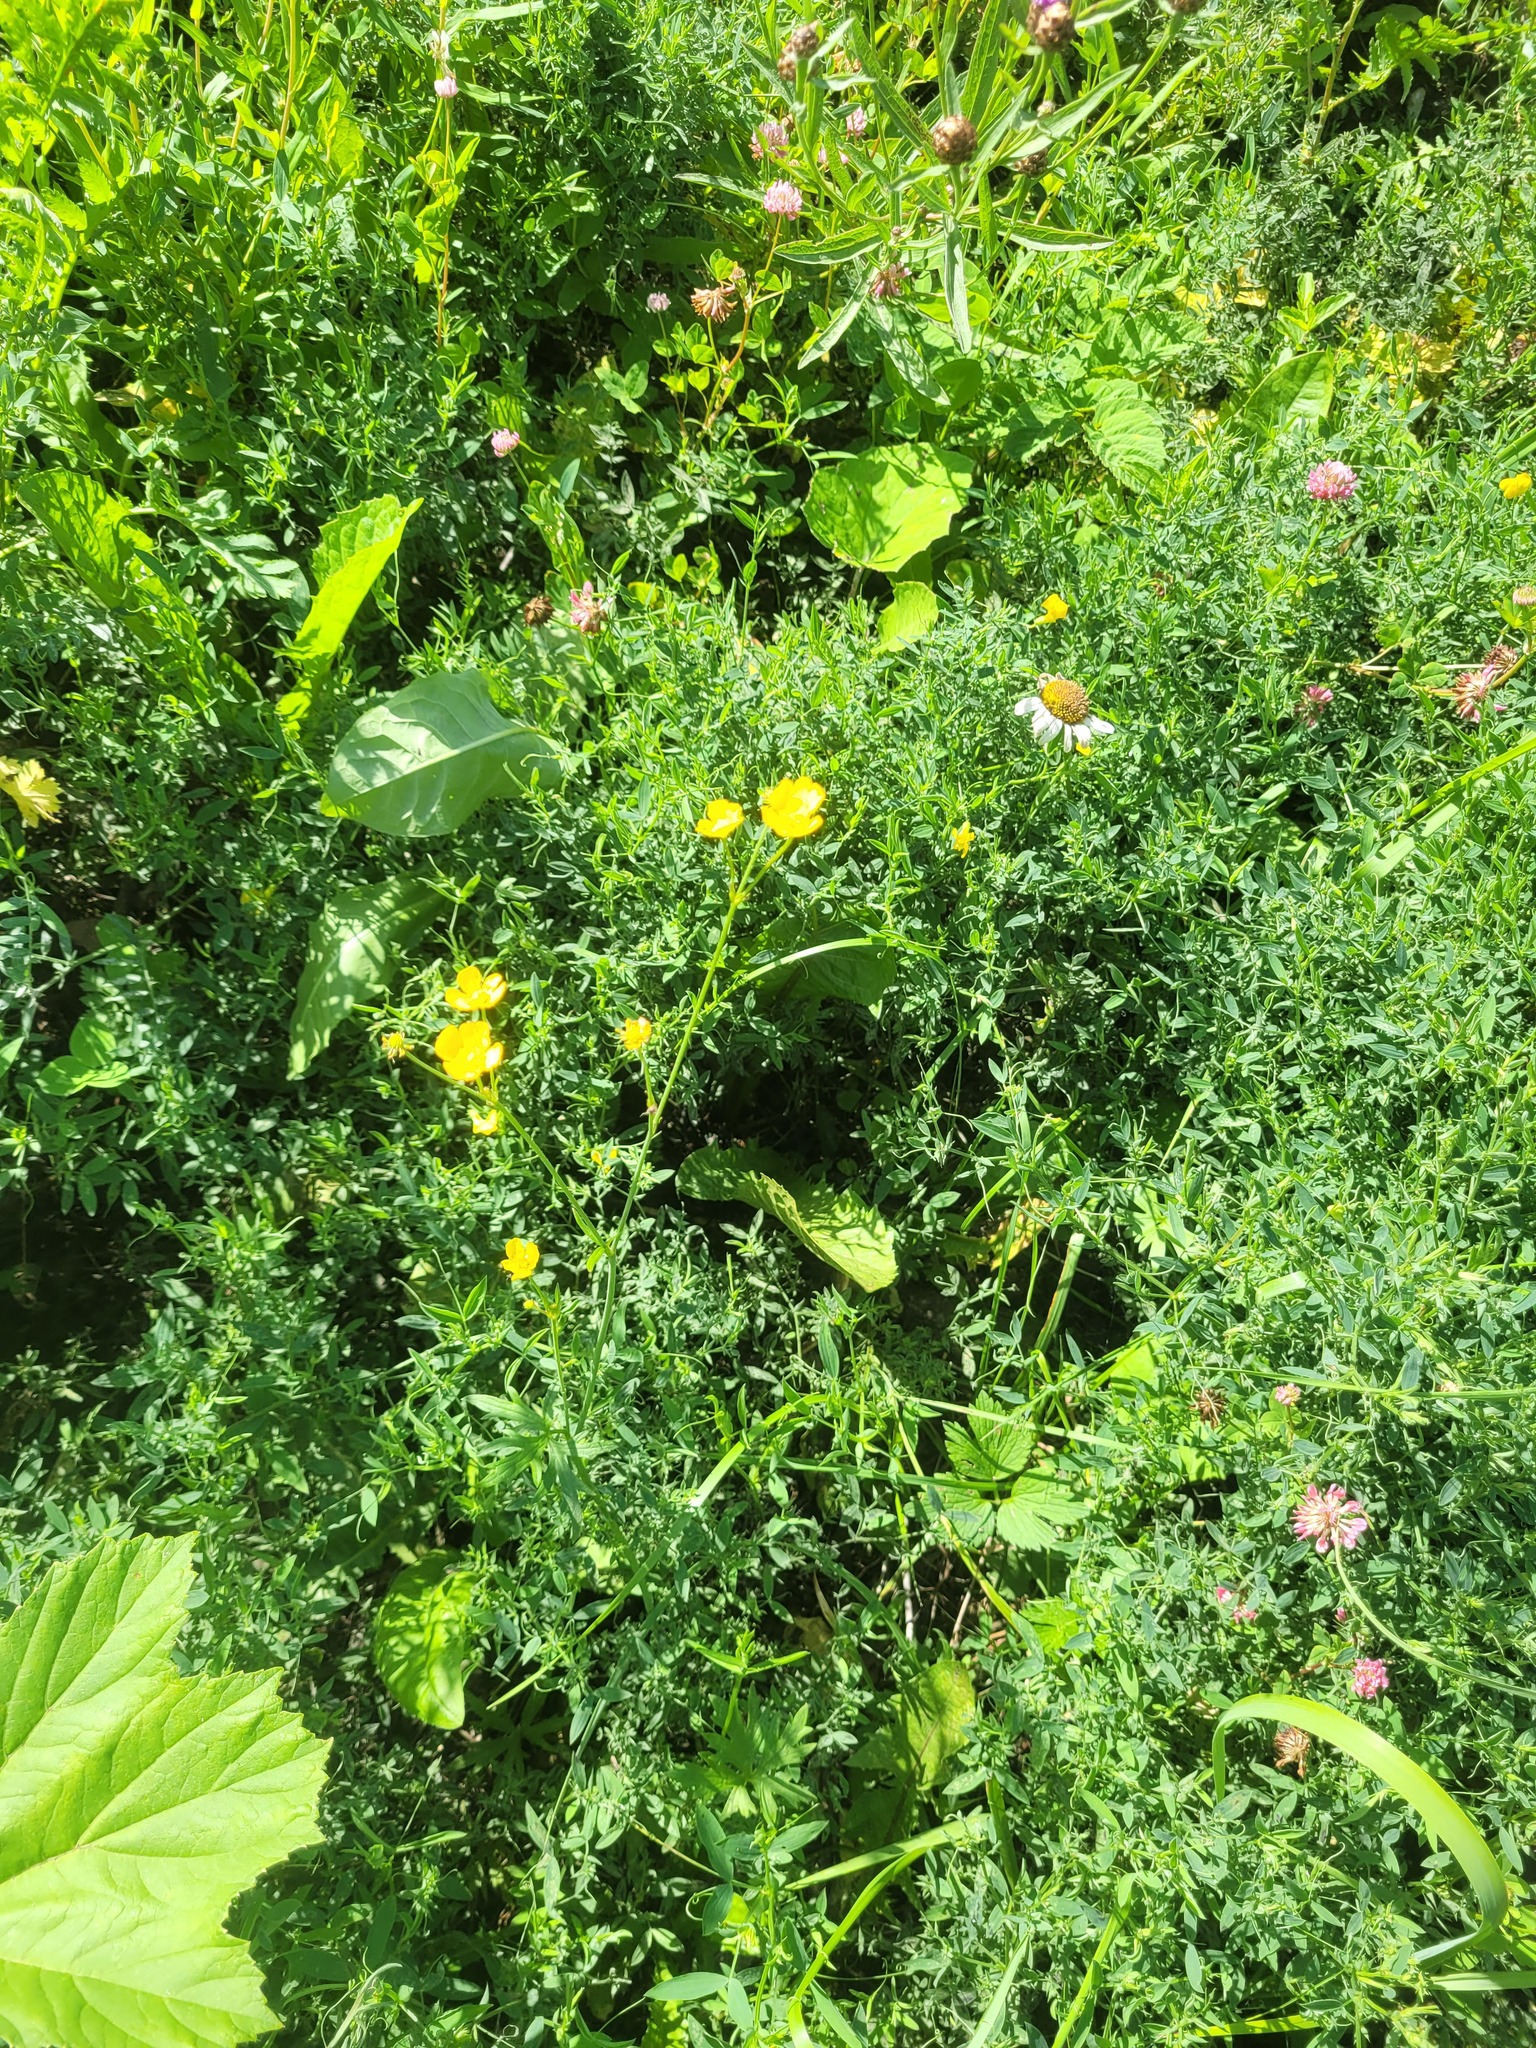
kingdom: Plantae
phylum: Tracheophyta
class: Magnoliopsida
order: Ranunculales
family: Ranunculaceae
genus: Ranunculus
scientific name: Ranunculus acris
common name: Meadow buttercup
